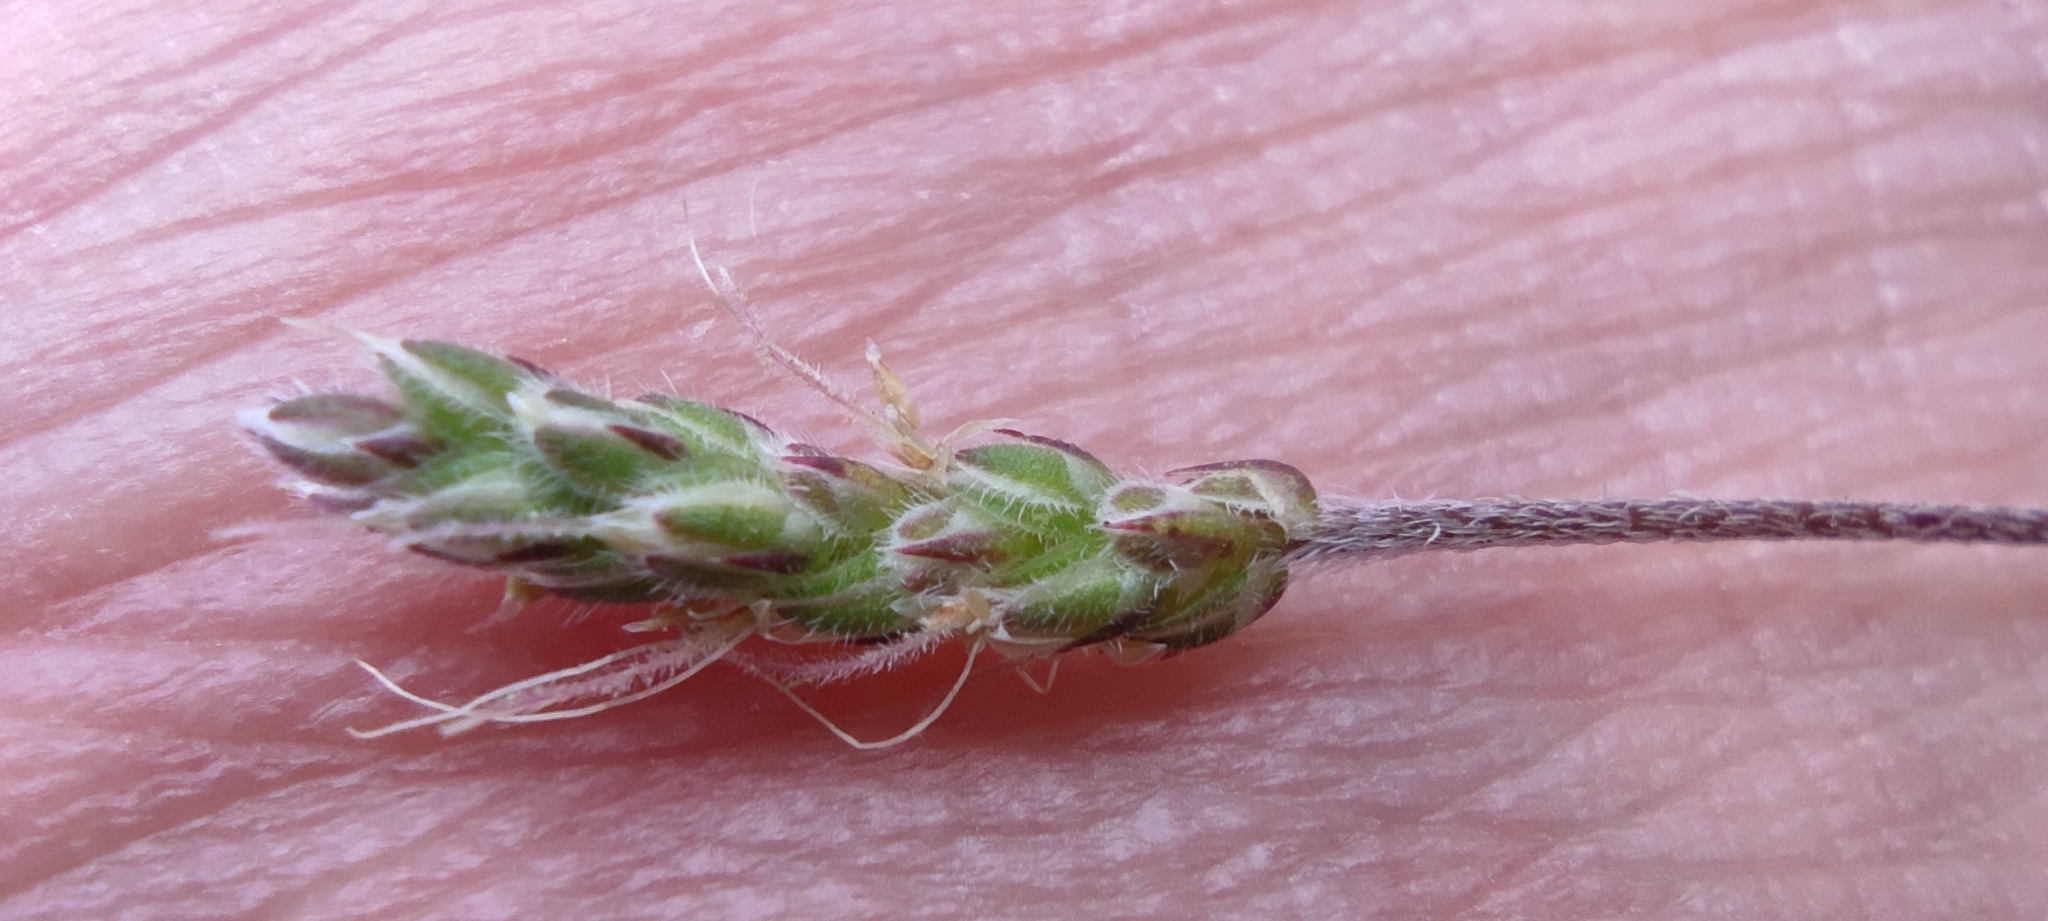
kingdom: Plantae
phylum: Tracheophyta
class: Magnoliopsida
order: Lamiales
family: Plantaginaceae
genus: Plantago
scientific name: Plantago coronopus
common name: Buck's-horn plantain
